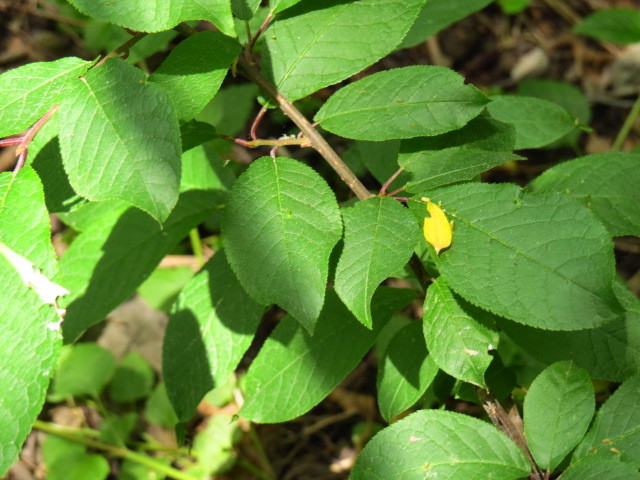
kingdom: Plantae
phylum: Tracheophyta
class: Magnoliopsida
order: Rosales
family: Rosaceae
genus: Prunus
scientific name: Prunus padus
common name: Bird cherry
